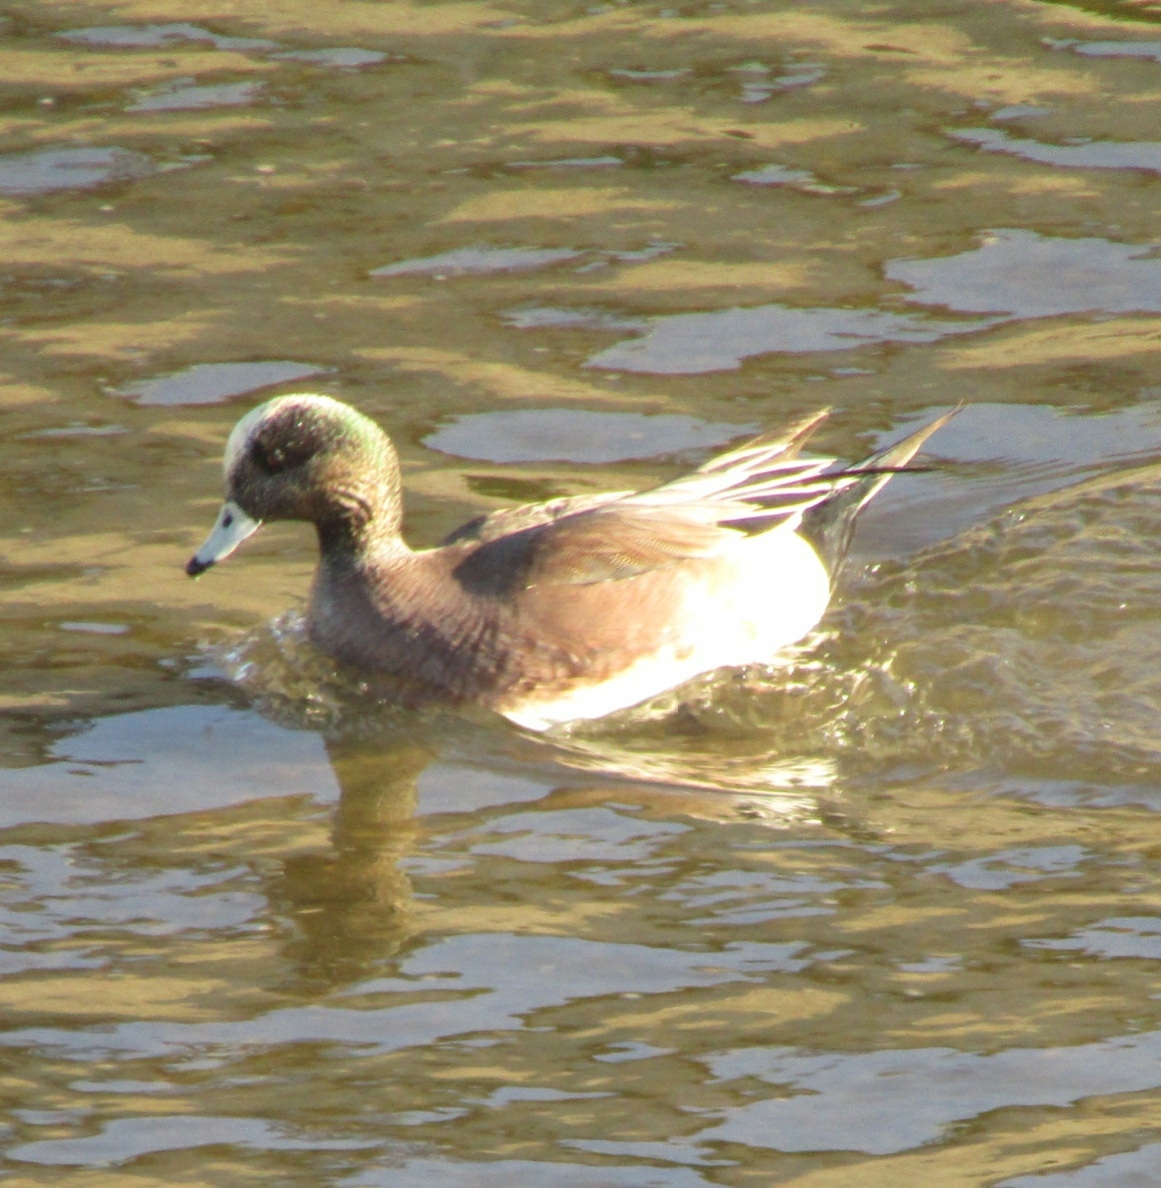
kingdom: Animalia
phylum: Chordata
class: Aves
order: Anseriformes
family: Anatidae
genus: Mareca
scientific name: Mareca americana
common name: American wigeon
